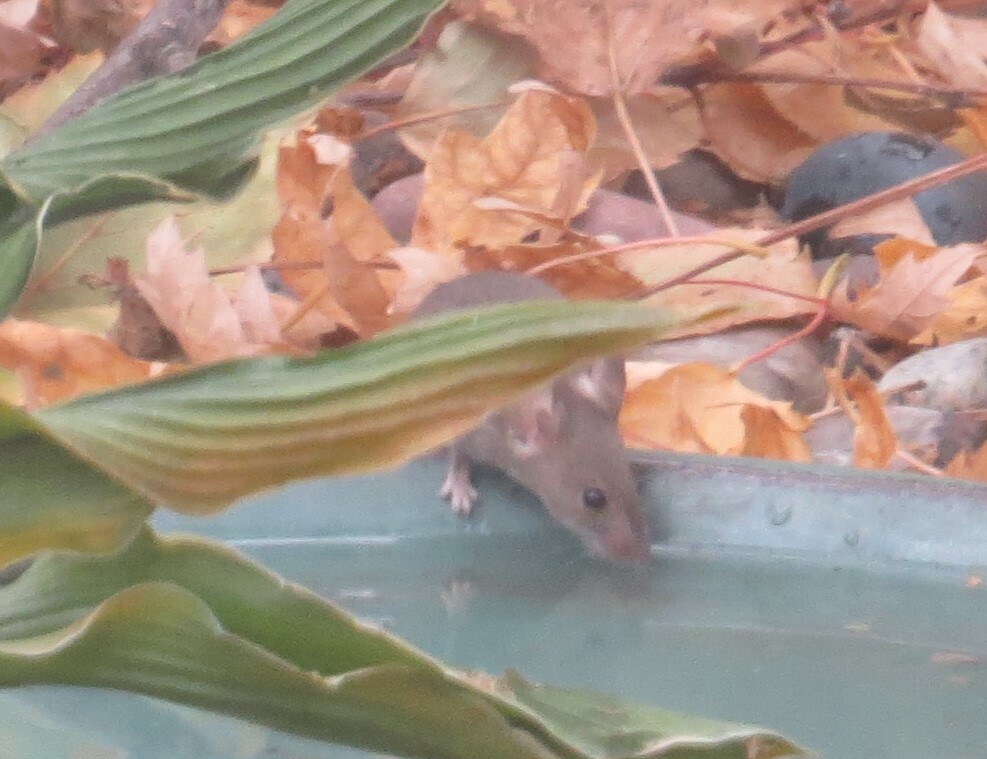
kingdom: Animalia
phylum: Chordata
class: Mammalia
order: Rodentia
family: Muridae
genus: Mus
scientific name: Mus musculus
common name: House mouse
